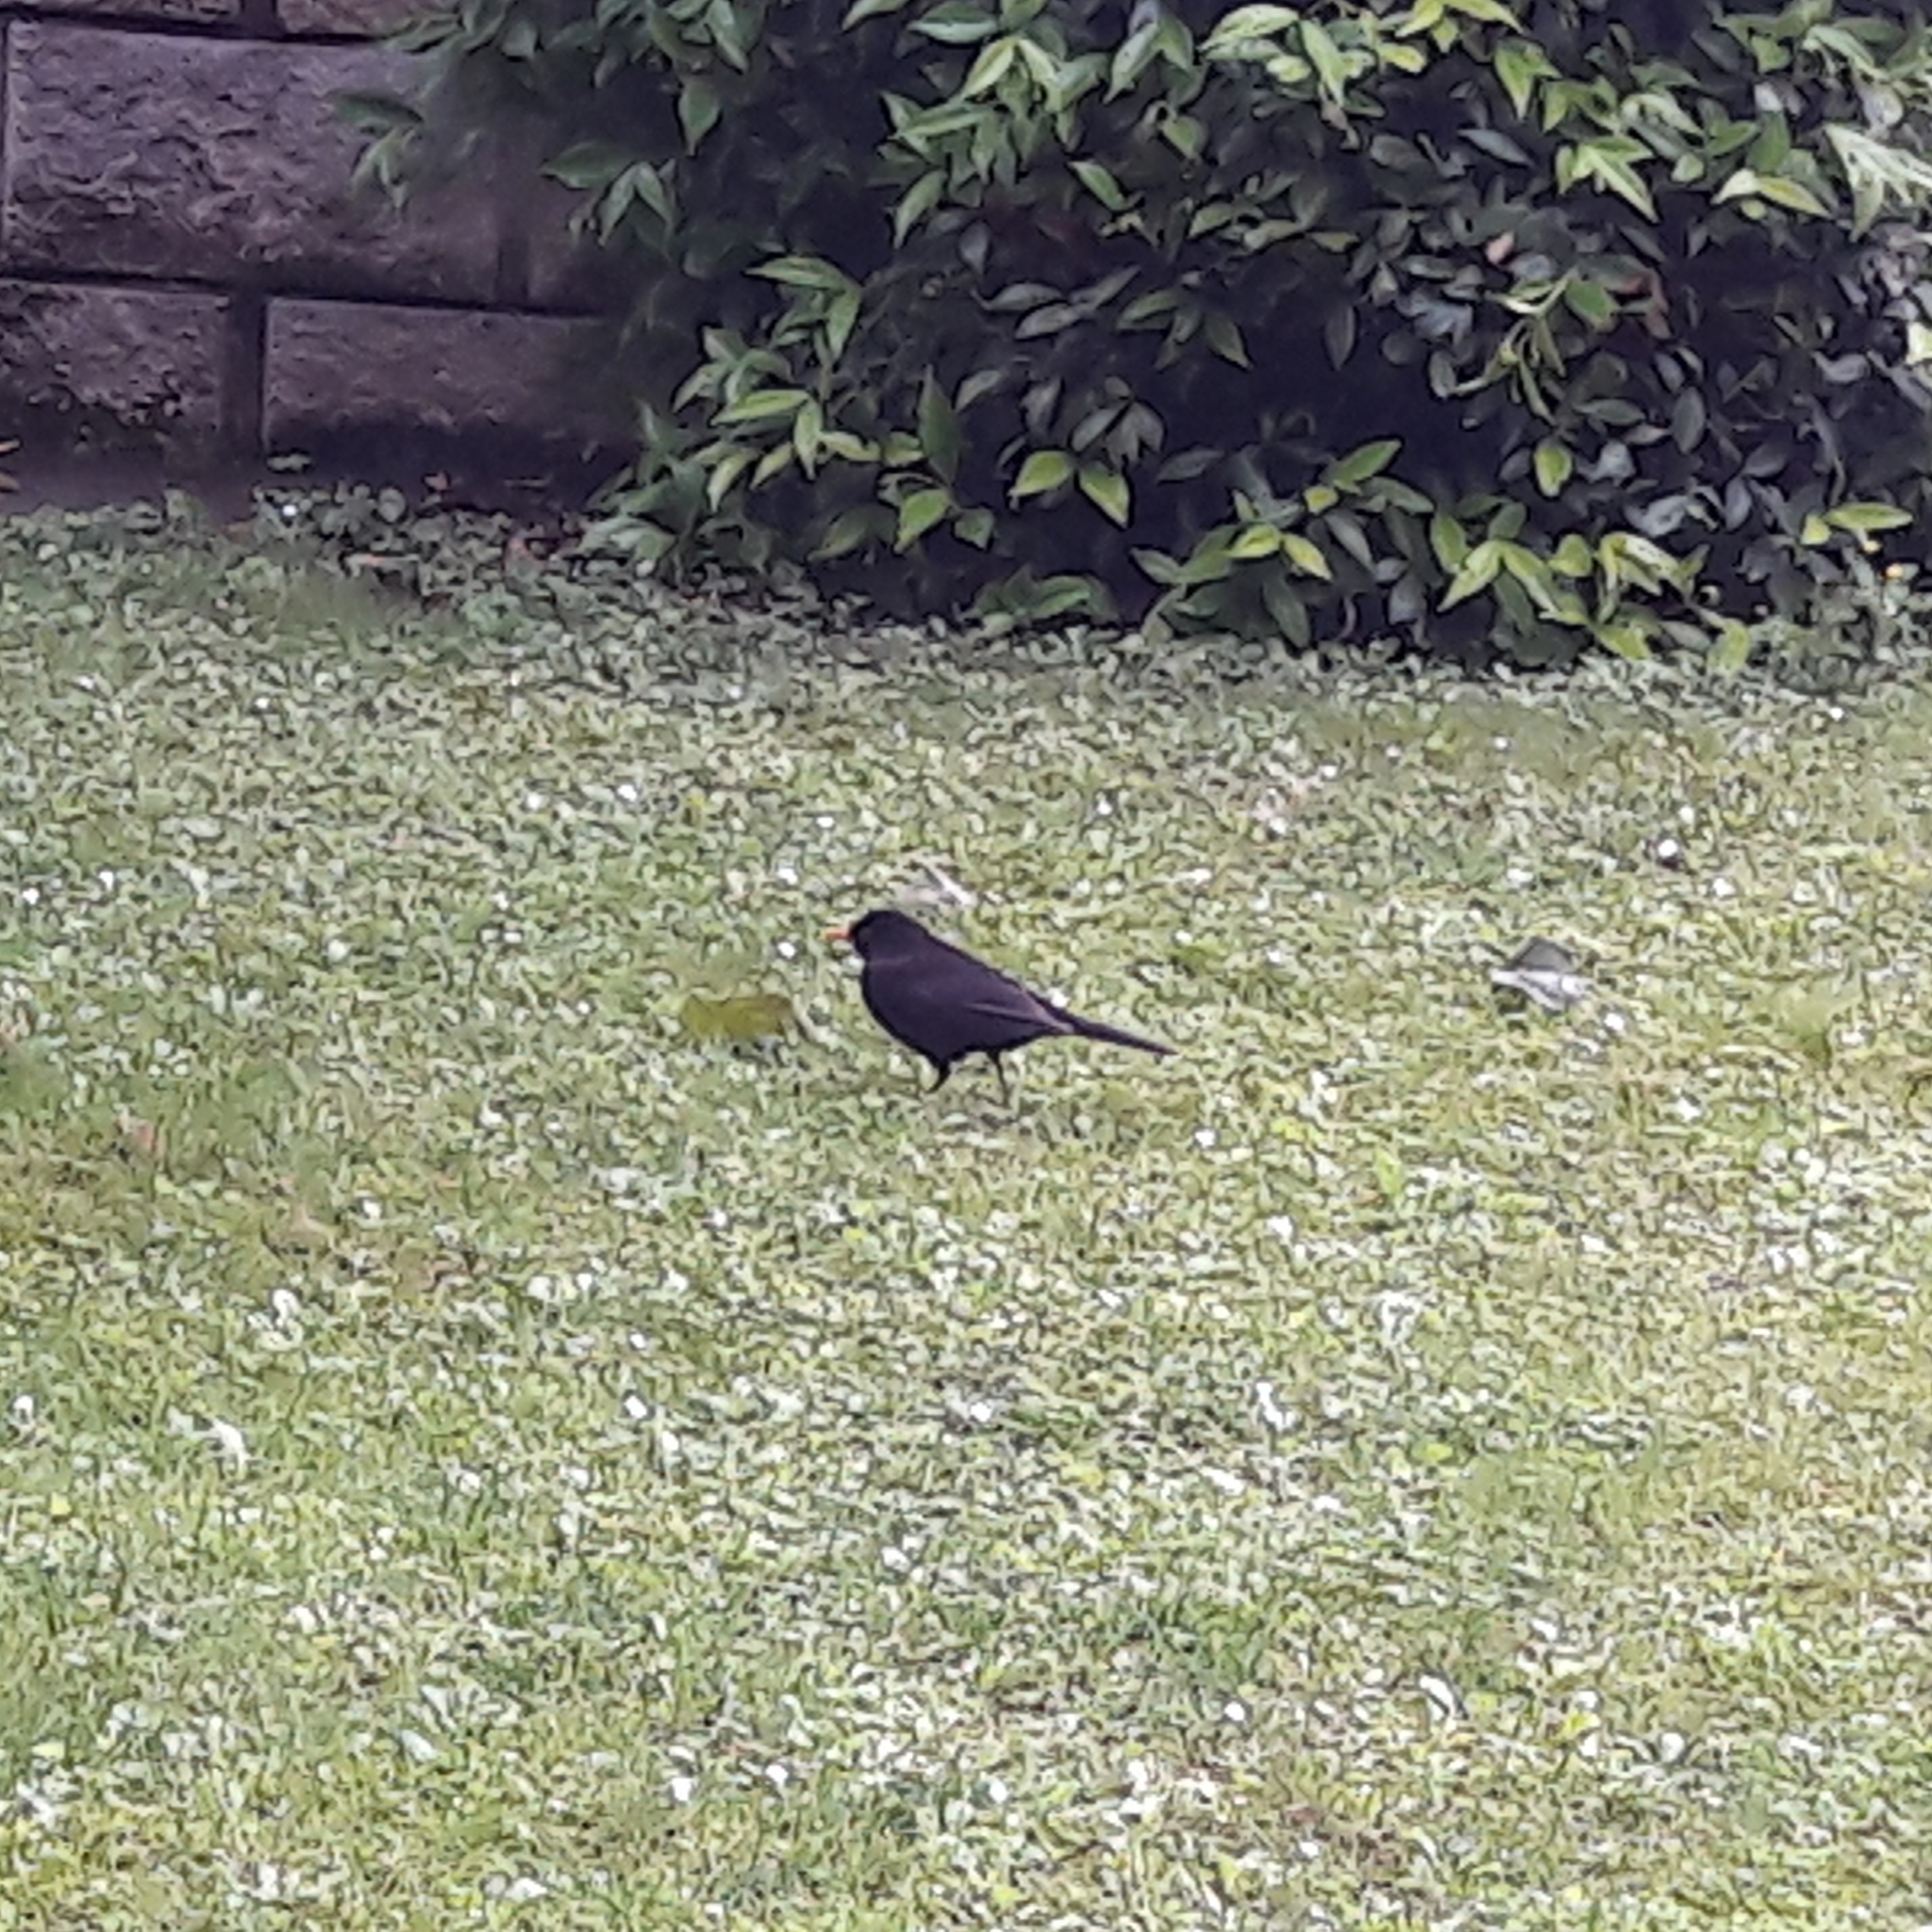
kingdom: Animalia
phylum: Chordata
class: Aves
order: Passeriformes
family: Turdidae
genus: Turdus
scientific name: Turdus merula
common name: Common blackbird
